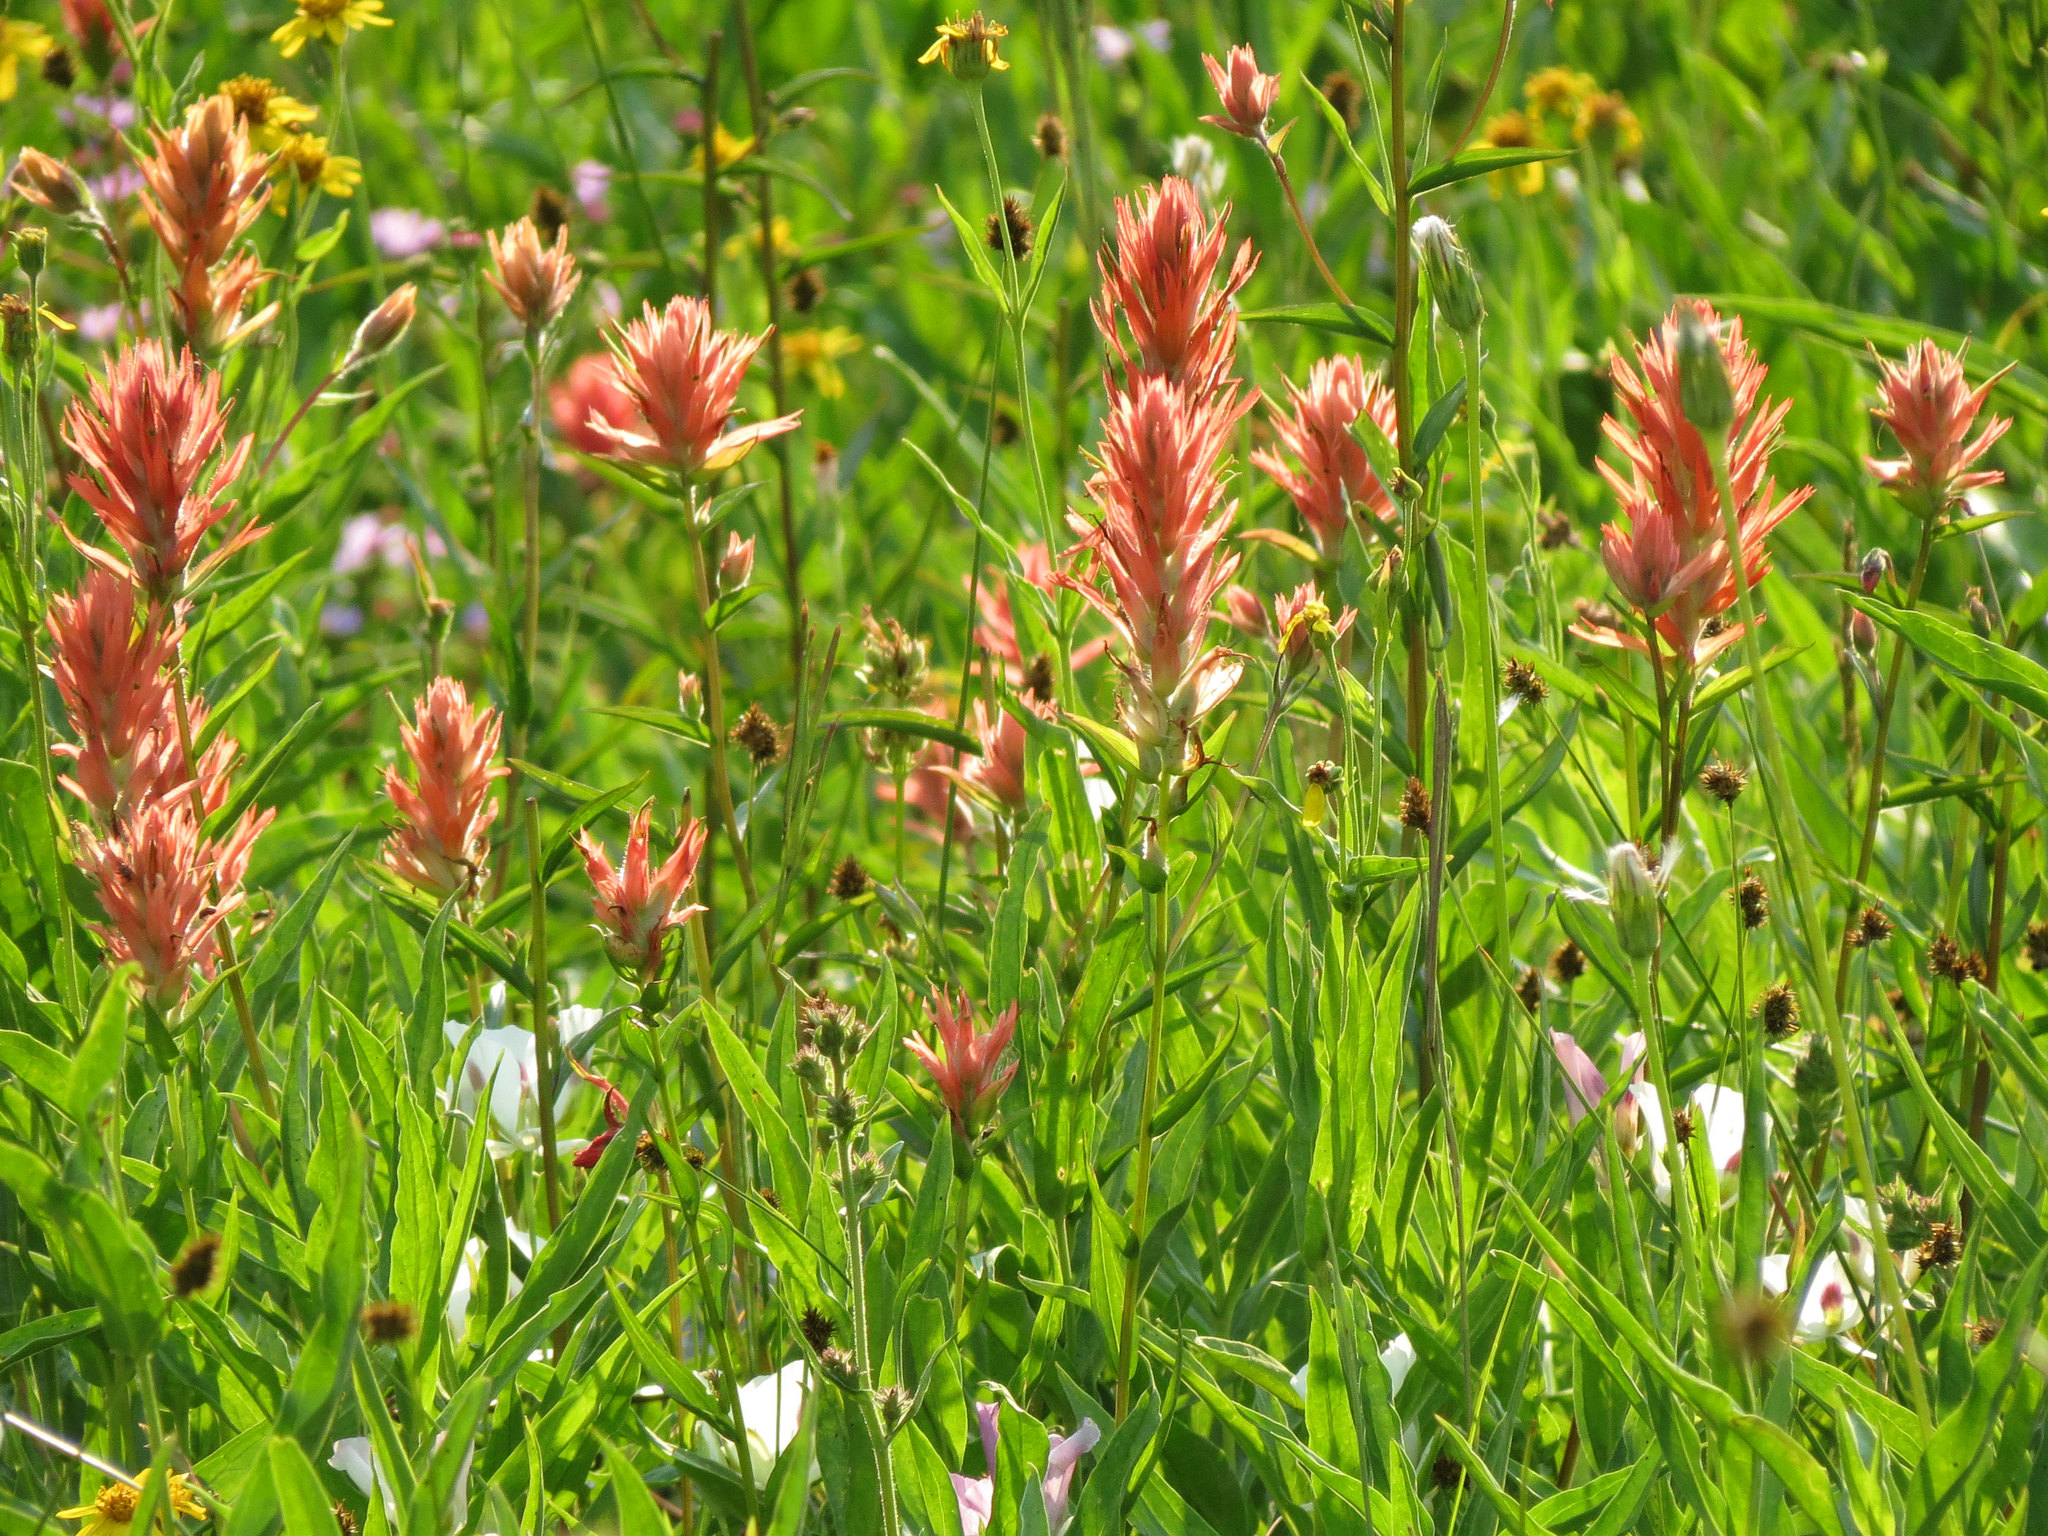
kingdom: Plantae
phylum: Tracheophyta
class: Magnoliopsida
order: Lamiales
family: Orobanchaceae
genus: Castilleja
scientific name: Castilleja miniata
